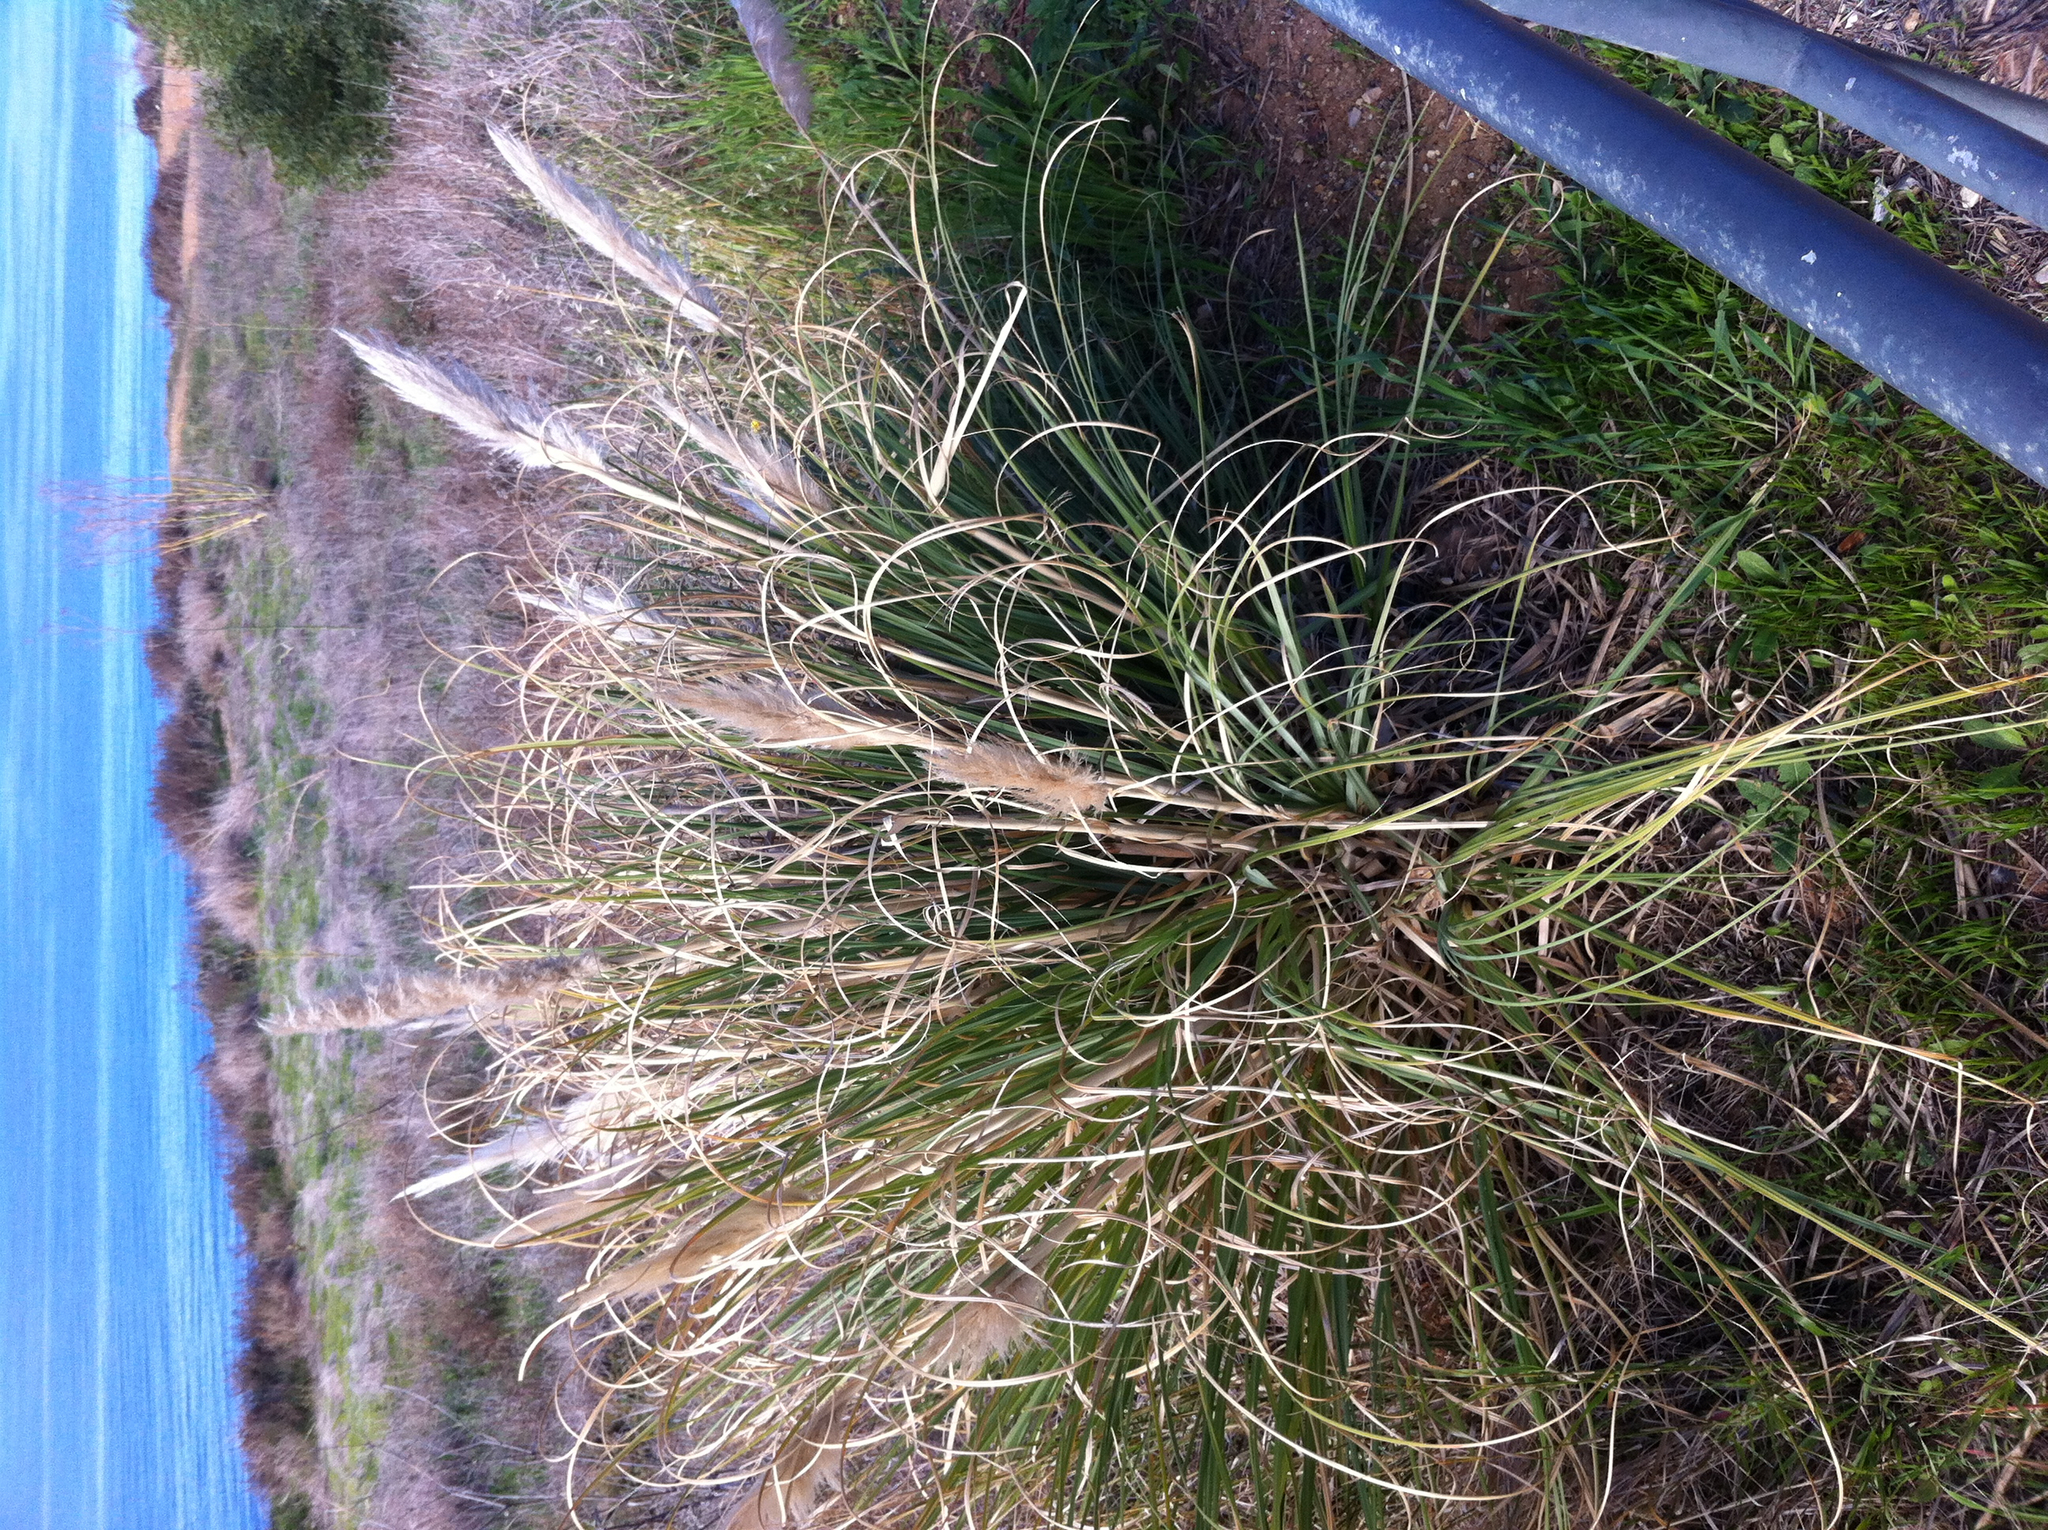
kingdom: Plantae
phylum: Tracheophyta
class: Liliopsida
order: Poales
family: Poaceae
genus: Cortaderia
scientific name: Cortaderia selloana
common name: Uruguayan pampas grass
